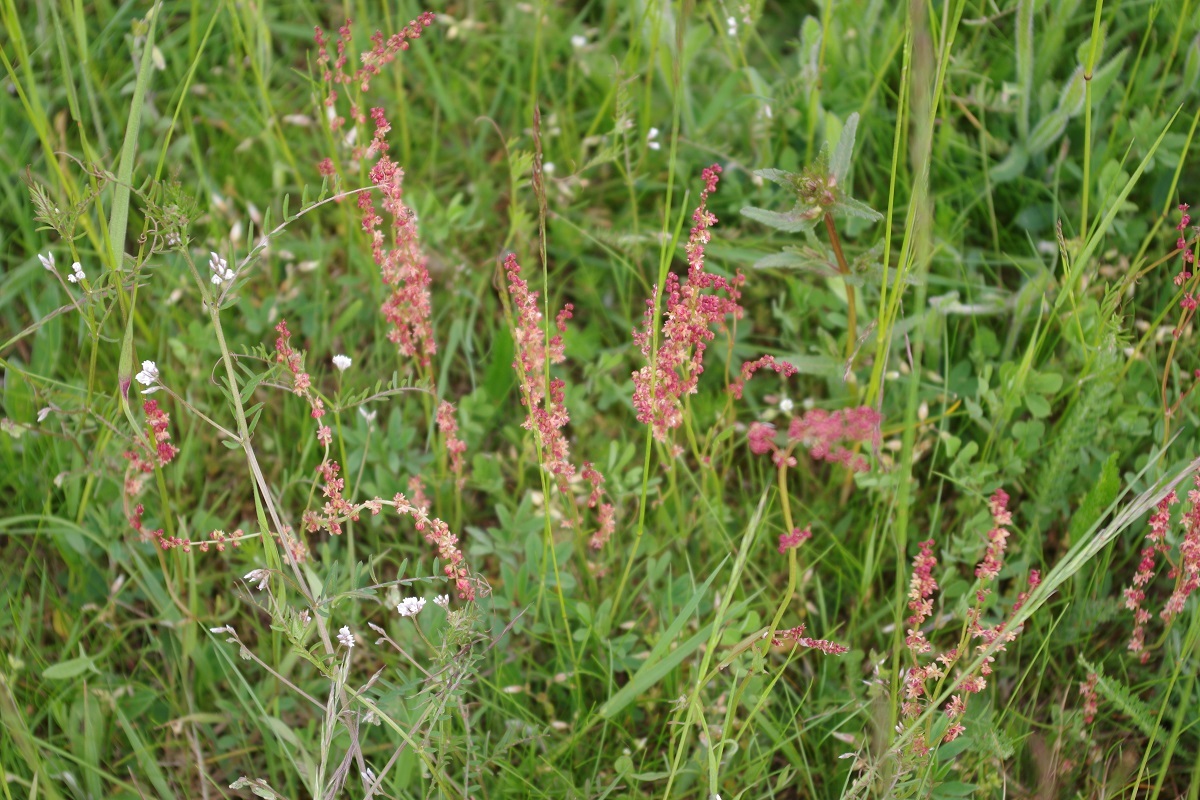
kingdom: Plantae
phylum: Tracheophyta
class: Magnoliopsida
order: Caryophyllales
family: Polygonaceae
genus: Rumex
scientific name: Rumex acetosella
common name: Common sheep sorrel
